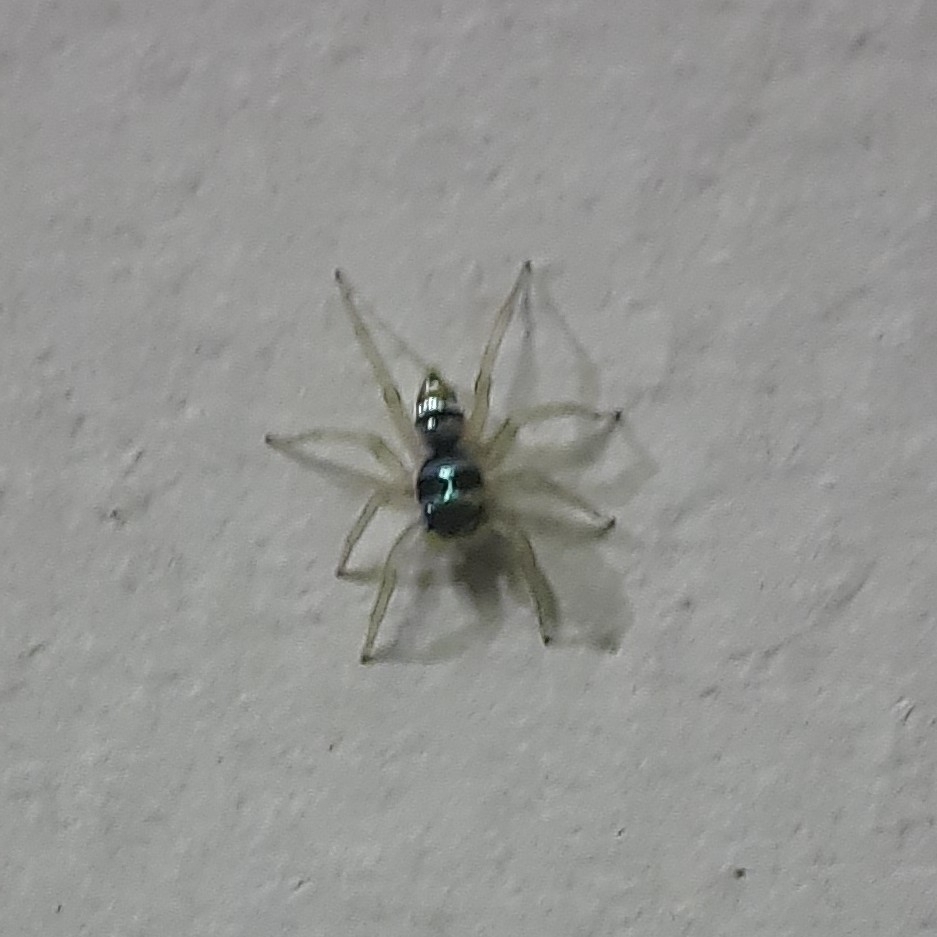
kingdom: Animalia
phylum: Arthropoda
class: Arachnida
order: Araneae
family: Salticidae
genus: Phintella
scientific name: Phintella vittata
